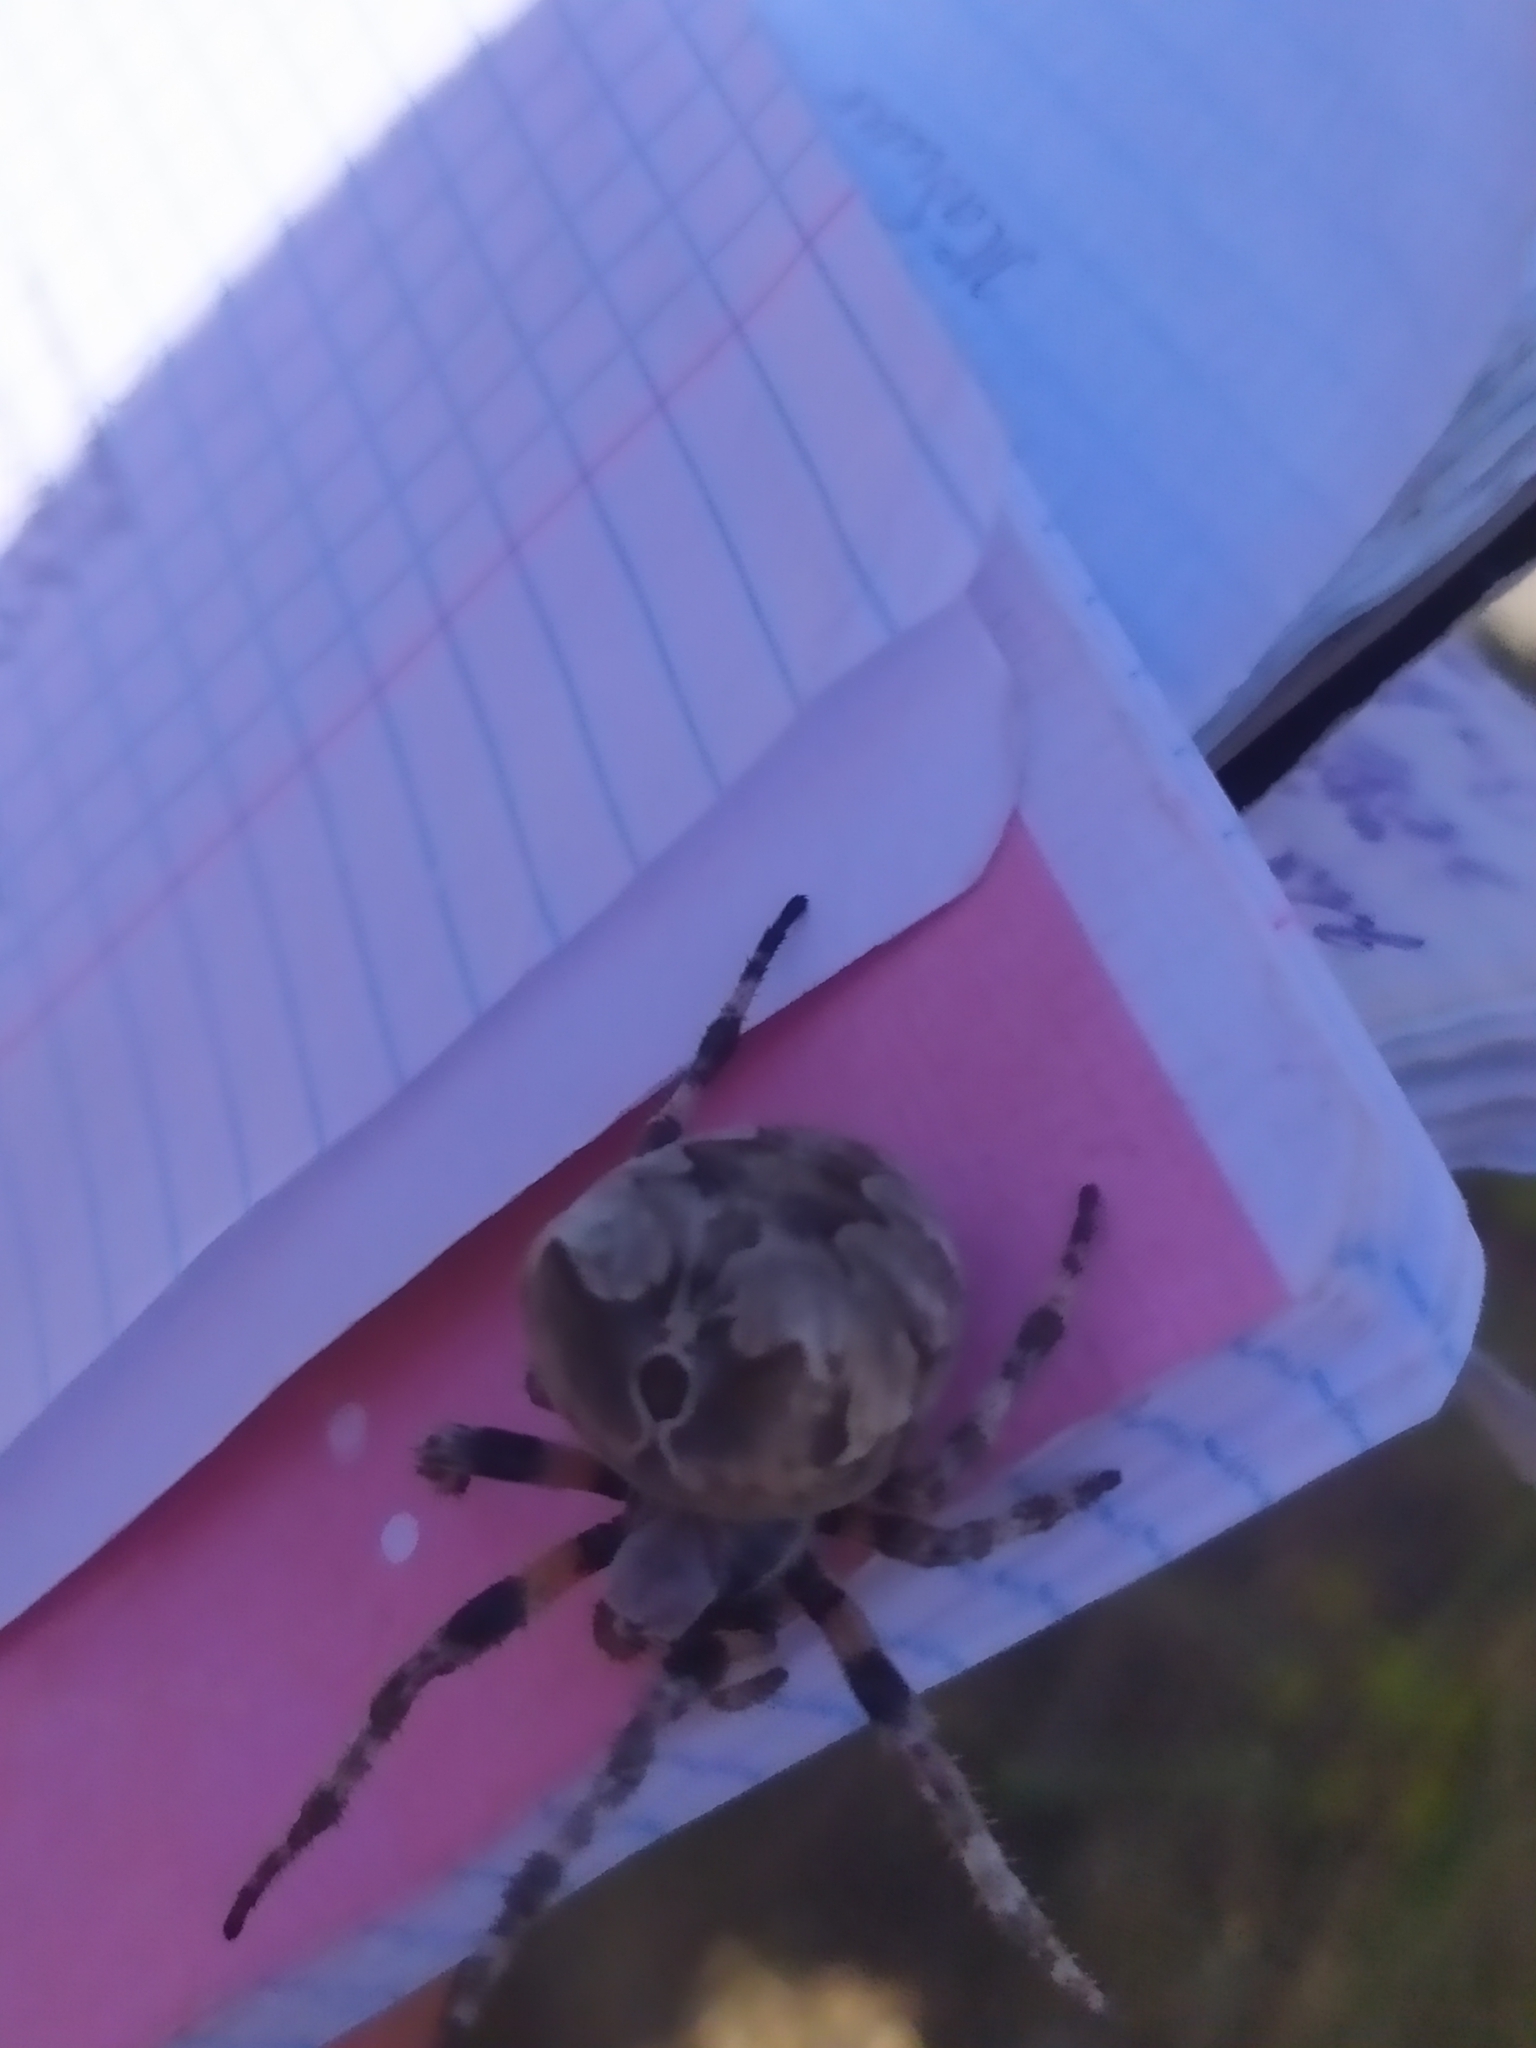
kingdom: Animalia
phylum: Arthropoda
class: Arachnida
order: Araneae
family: Araneidae
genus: Araneus
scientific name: Araneus grossus
